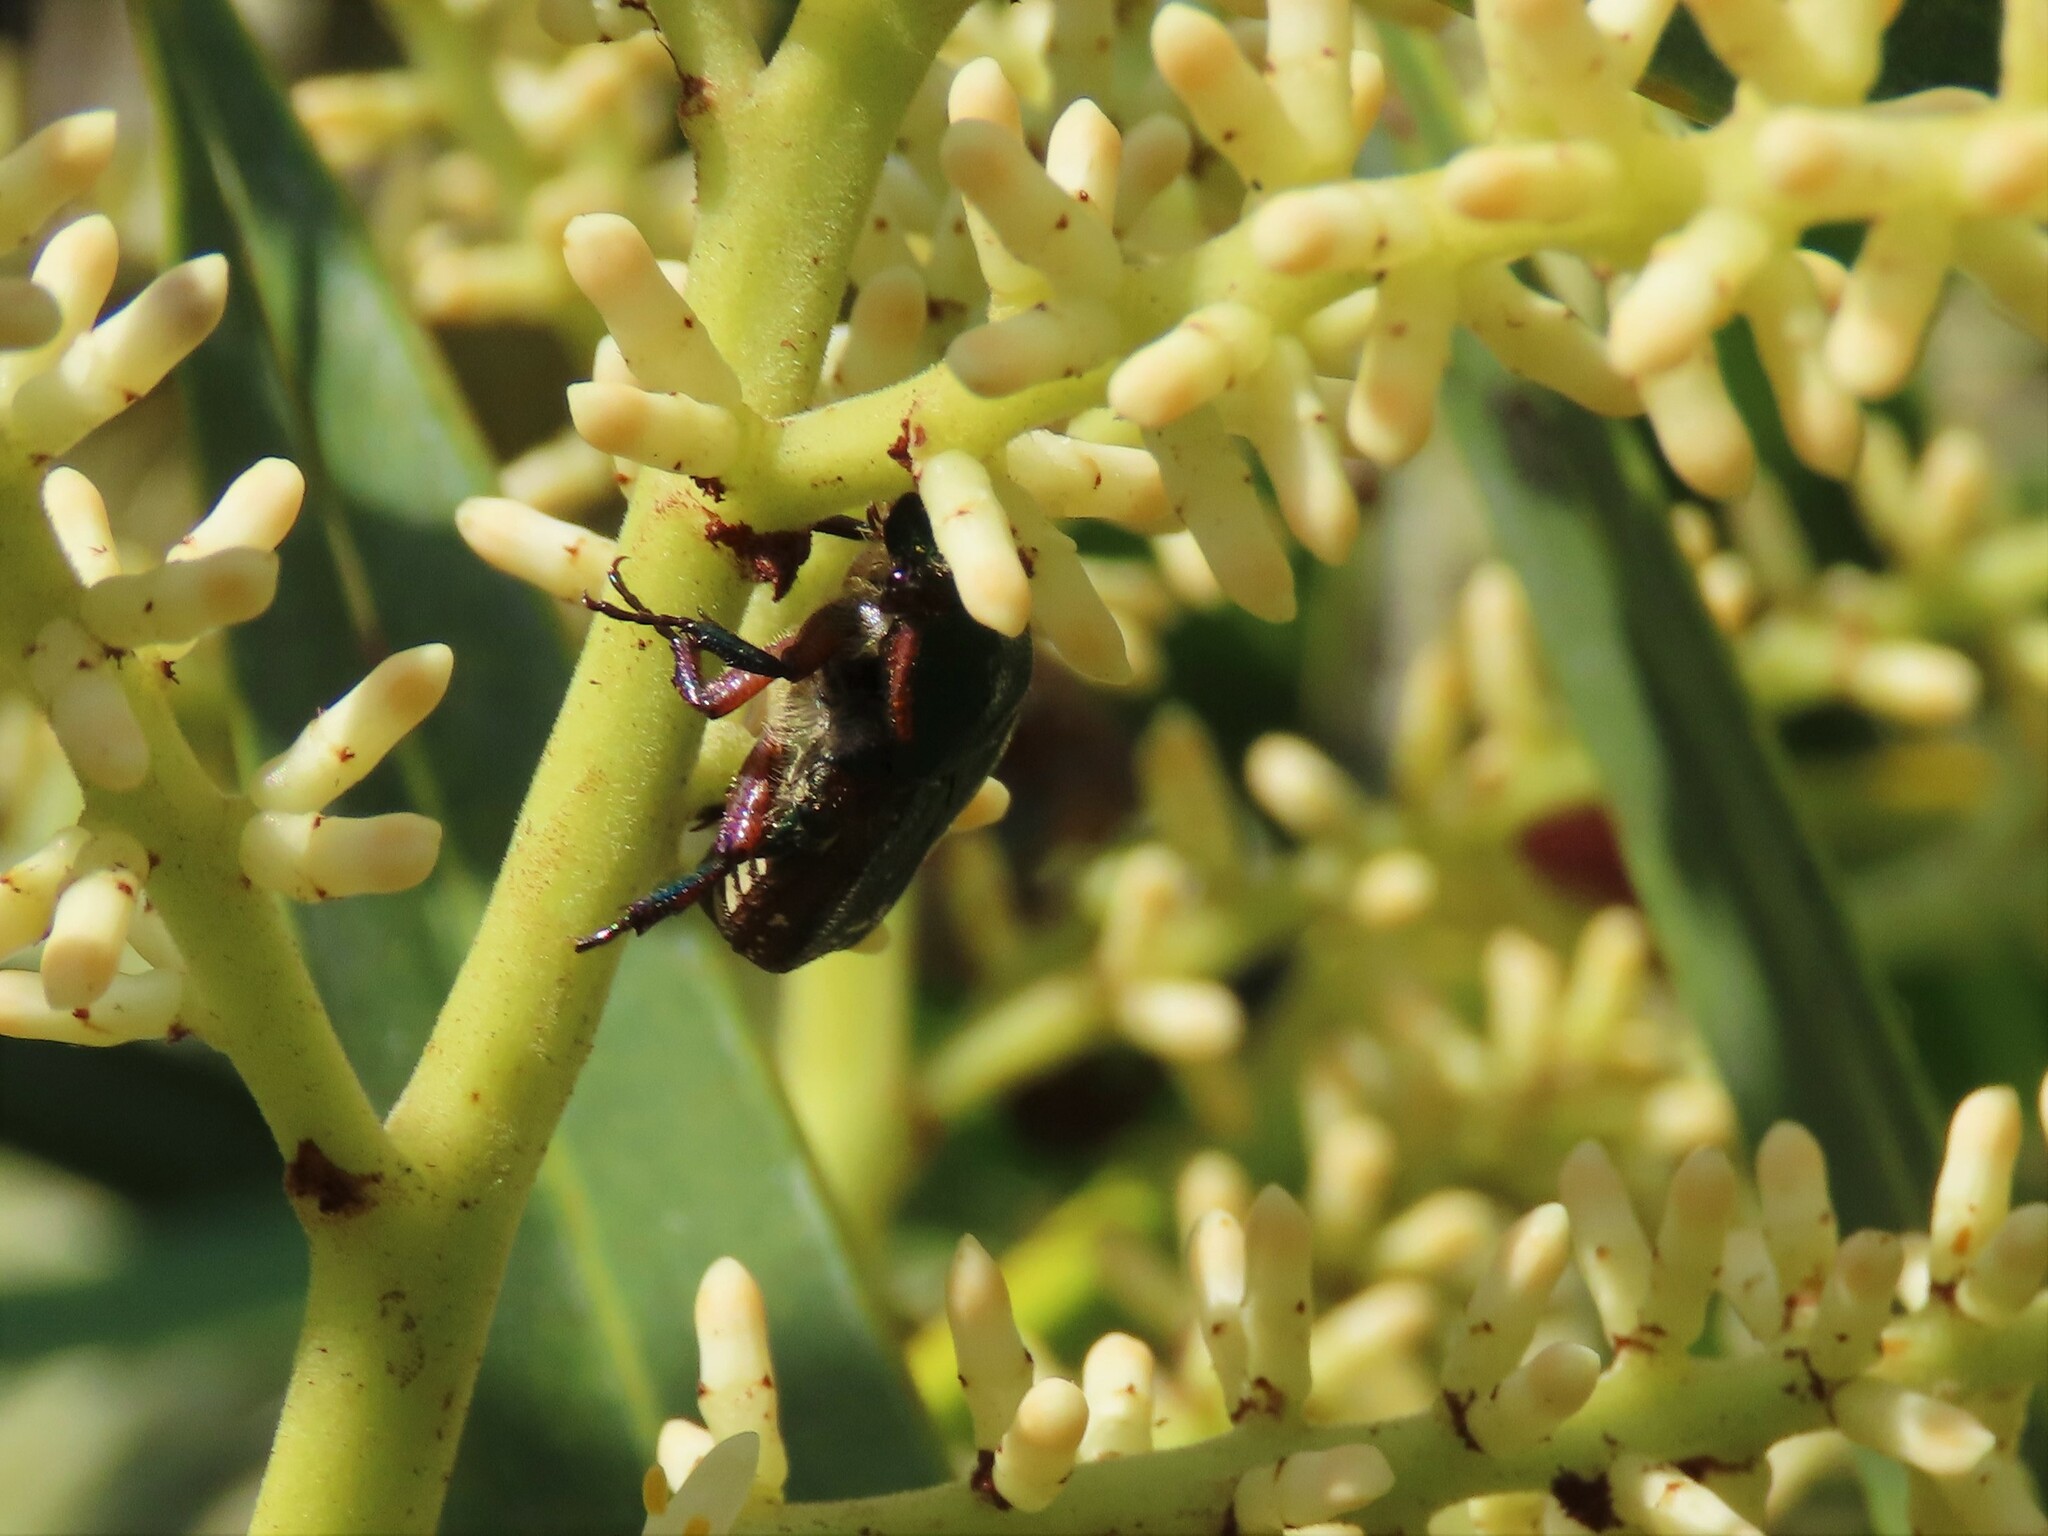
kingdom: Animalia
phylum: Arthropoda
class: Insecta
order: Coleoptera
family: Scarabaeidae
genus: Euphoria
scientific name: Euphoria limbalis
